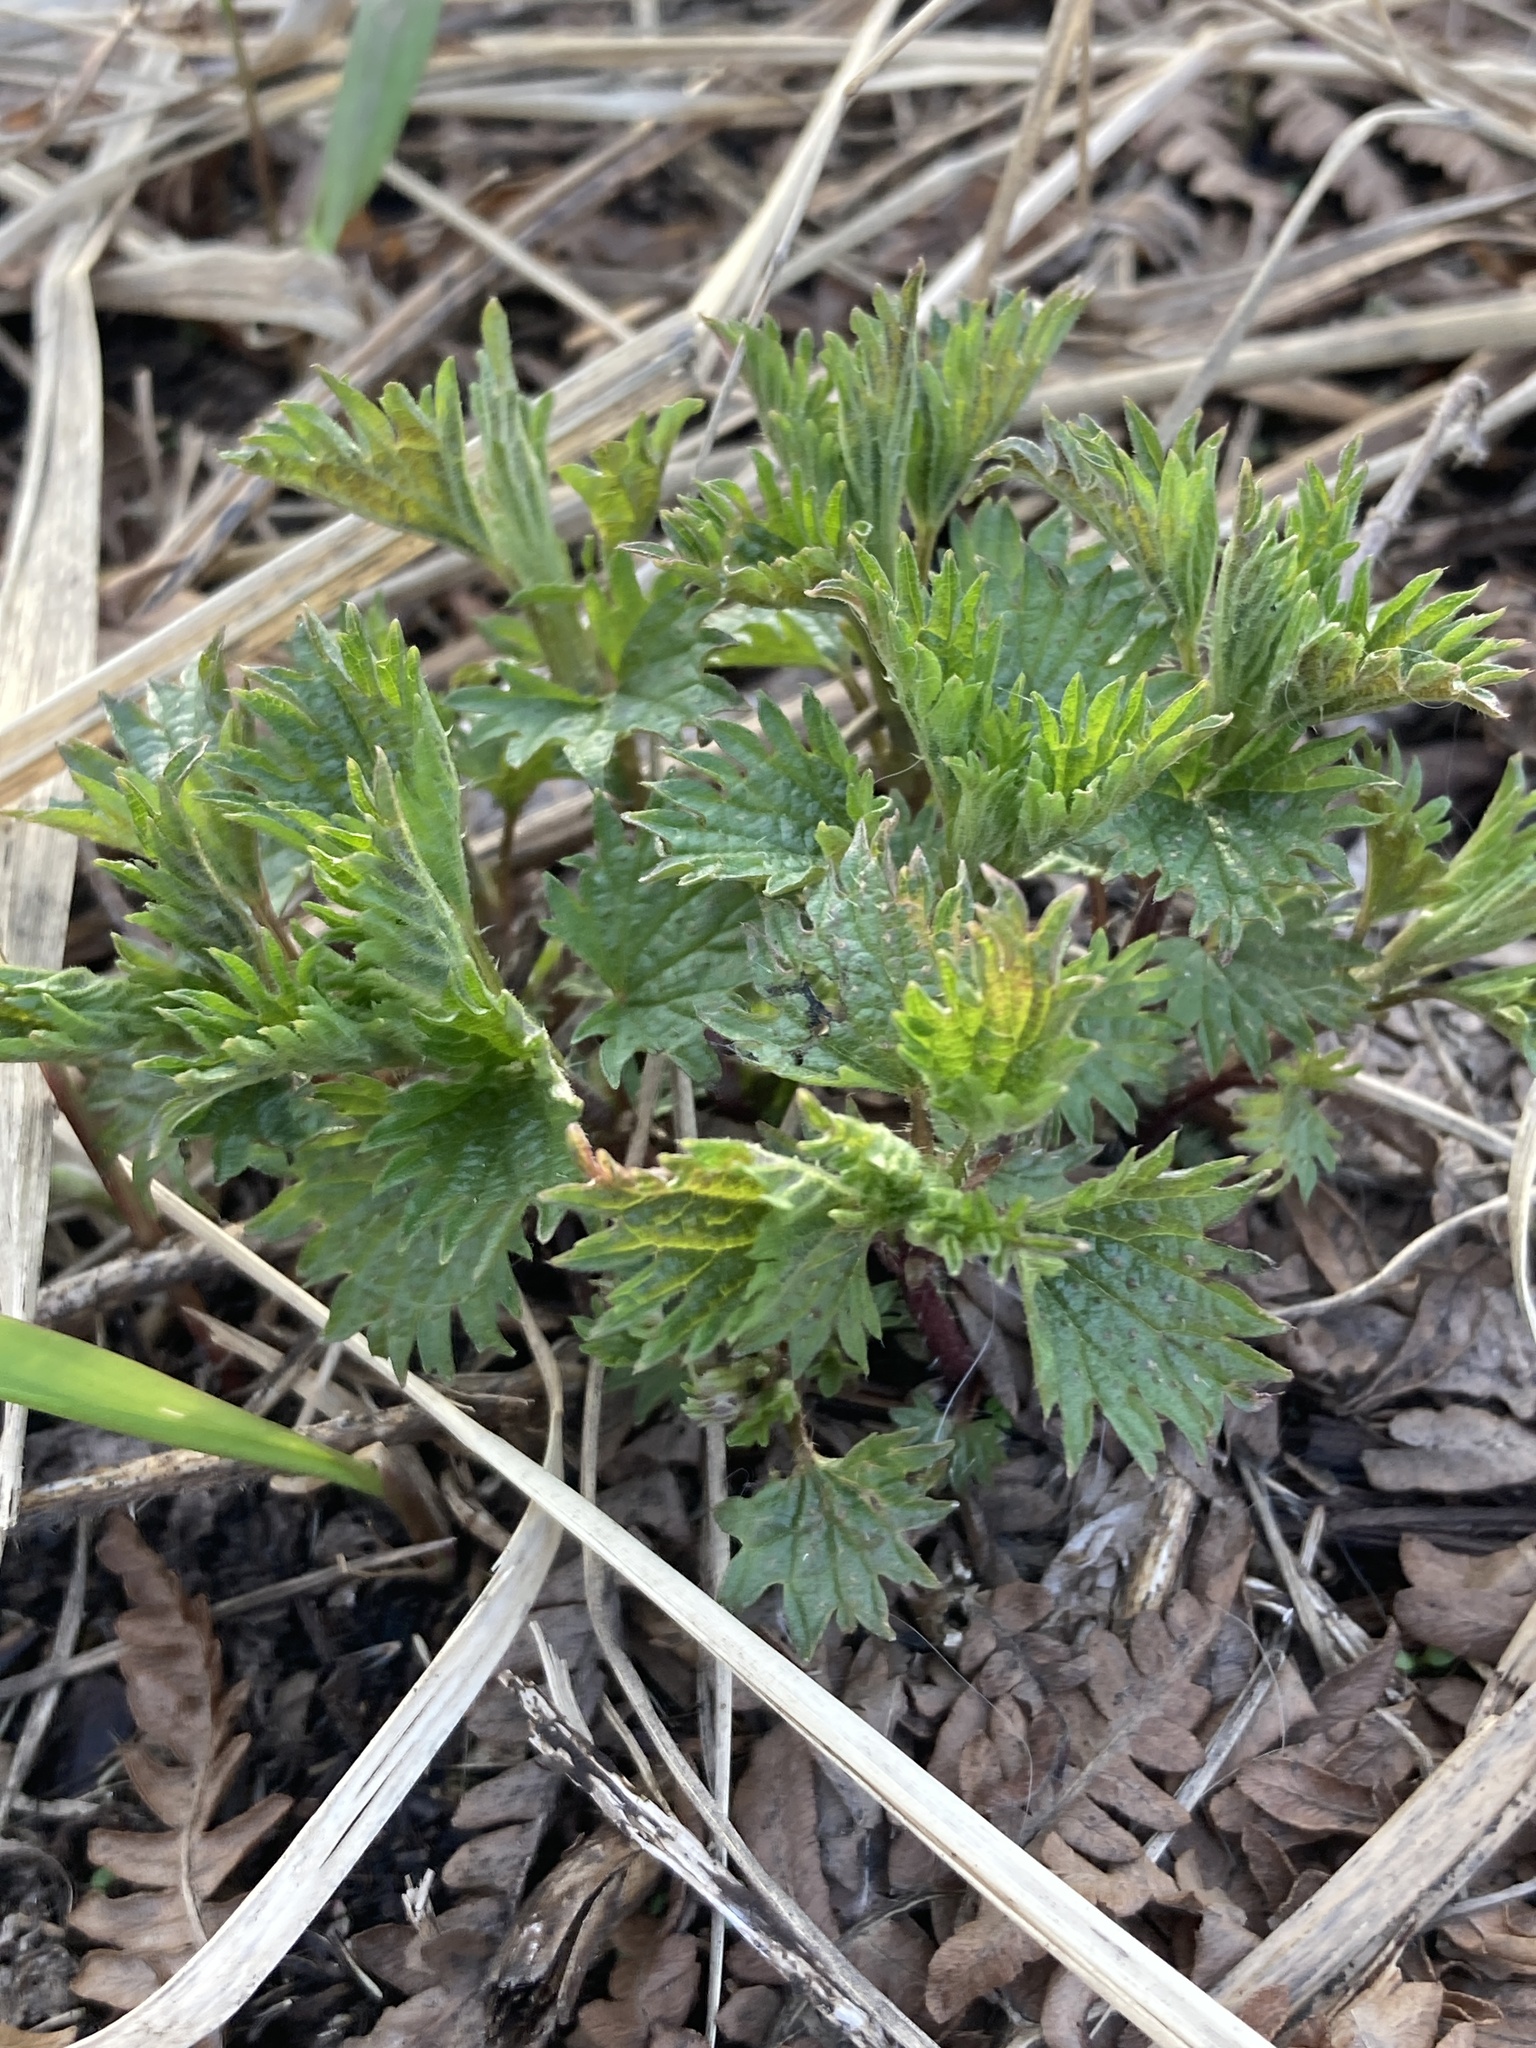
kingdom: Plantae
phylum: Tracheophyta
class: Magnoliopsida
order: Rosales
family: Urticaceae
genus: Urtica
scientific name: Urtica dioica
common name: Common nettle
